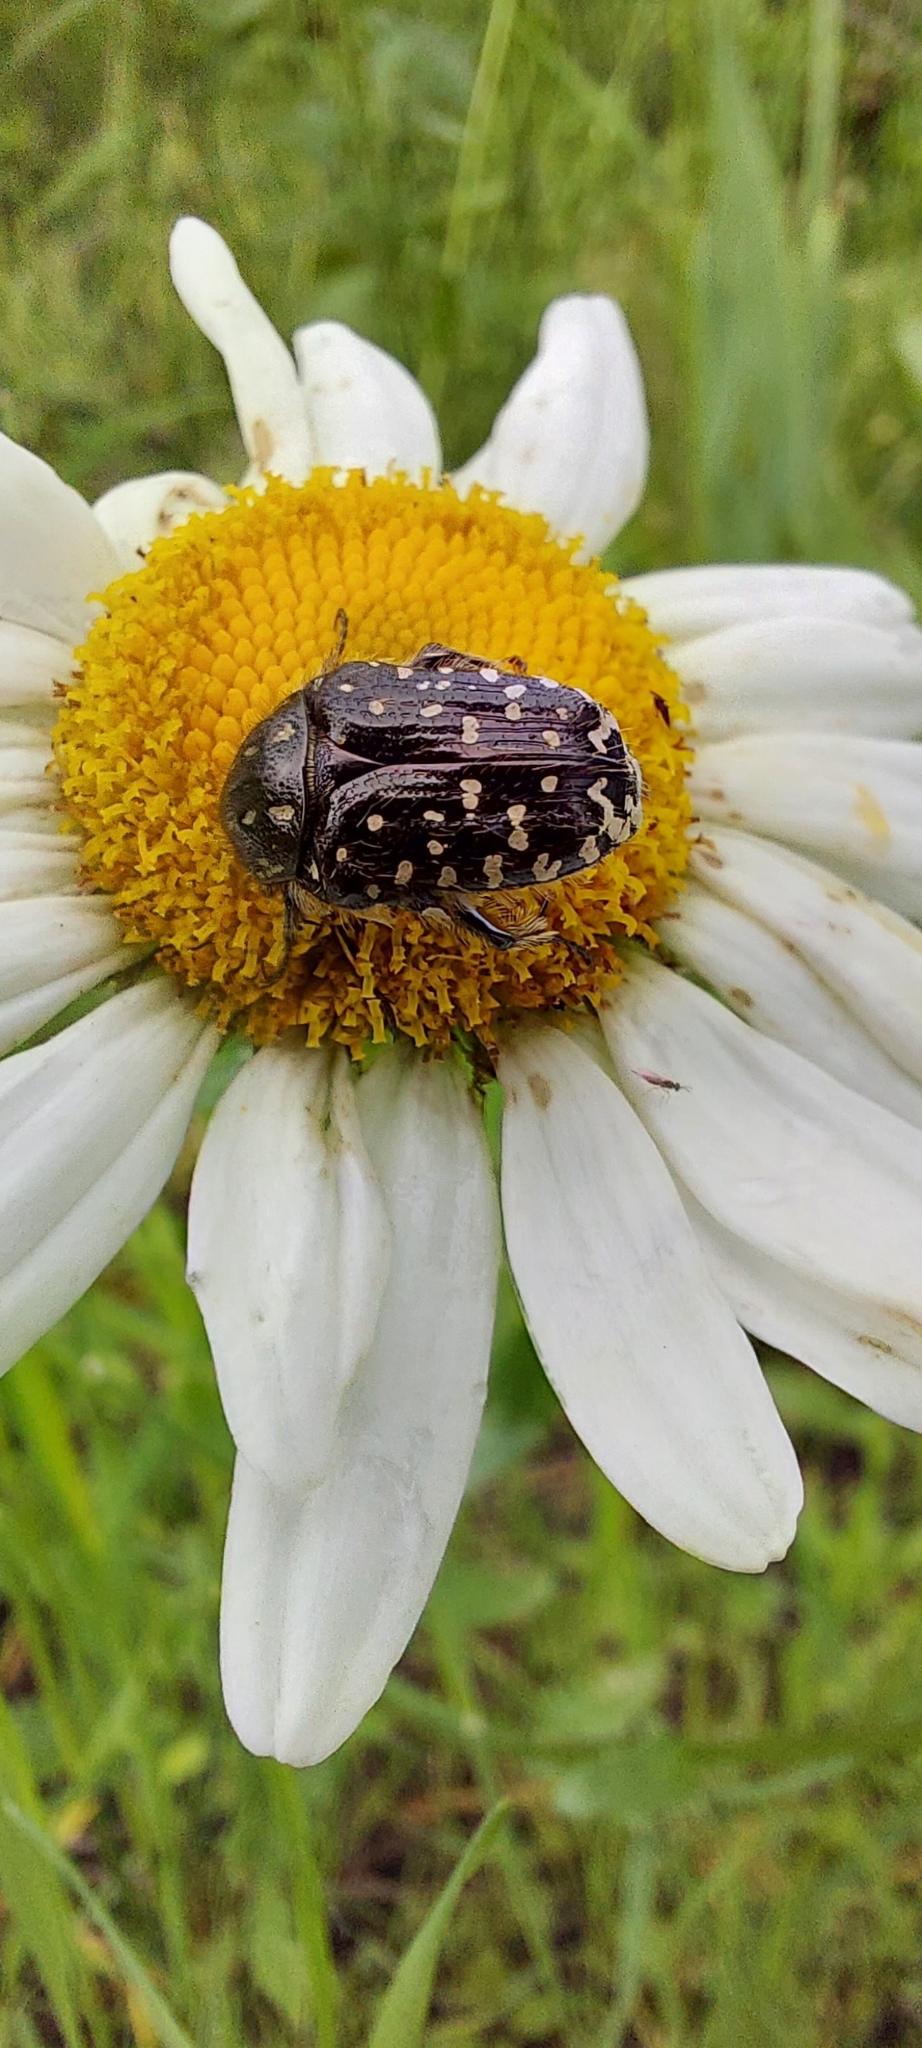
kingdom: Animalia
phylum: Arthropoda
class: Insecta
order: Coleoptera
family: Scarabaeidae
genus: Oxythyrea
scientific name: Oxythyrea funesta
